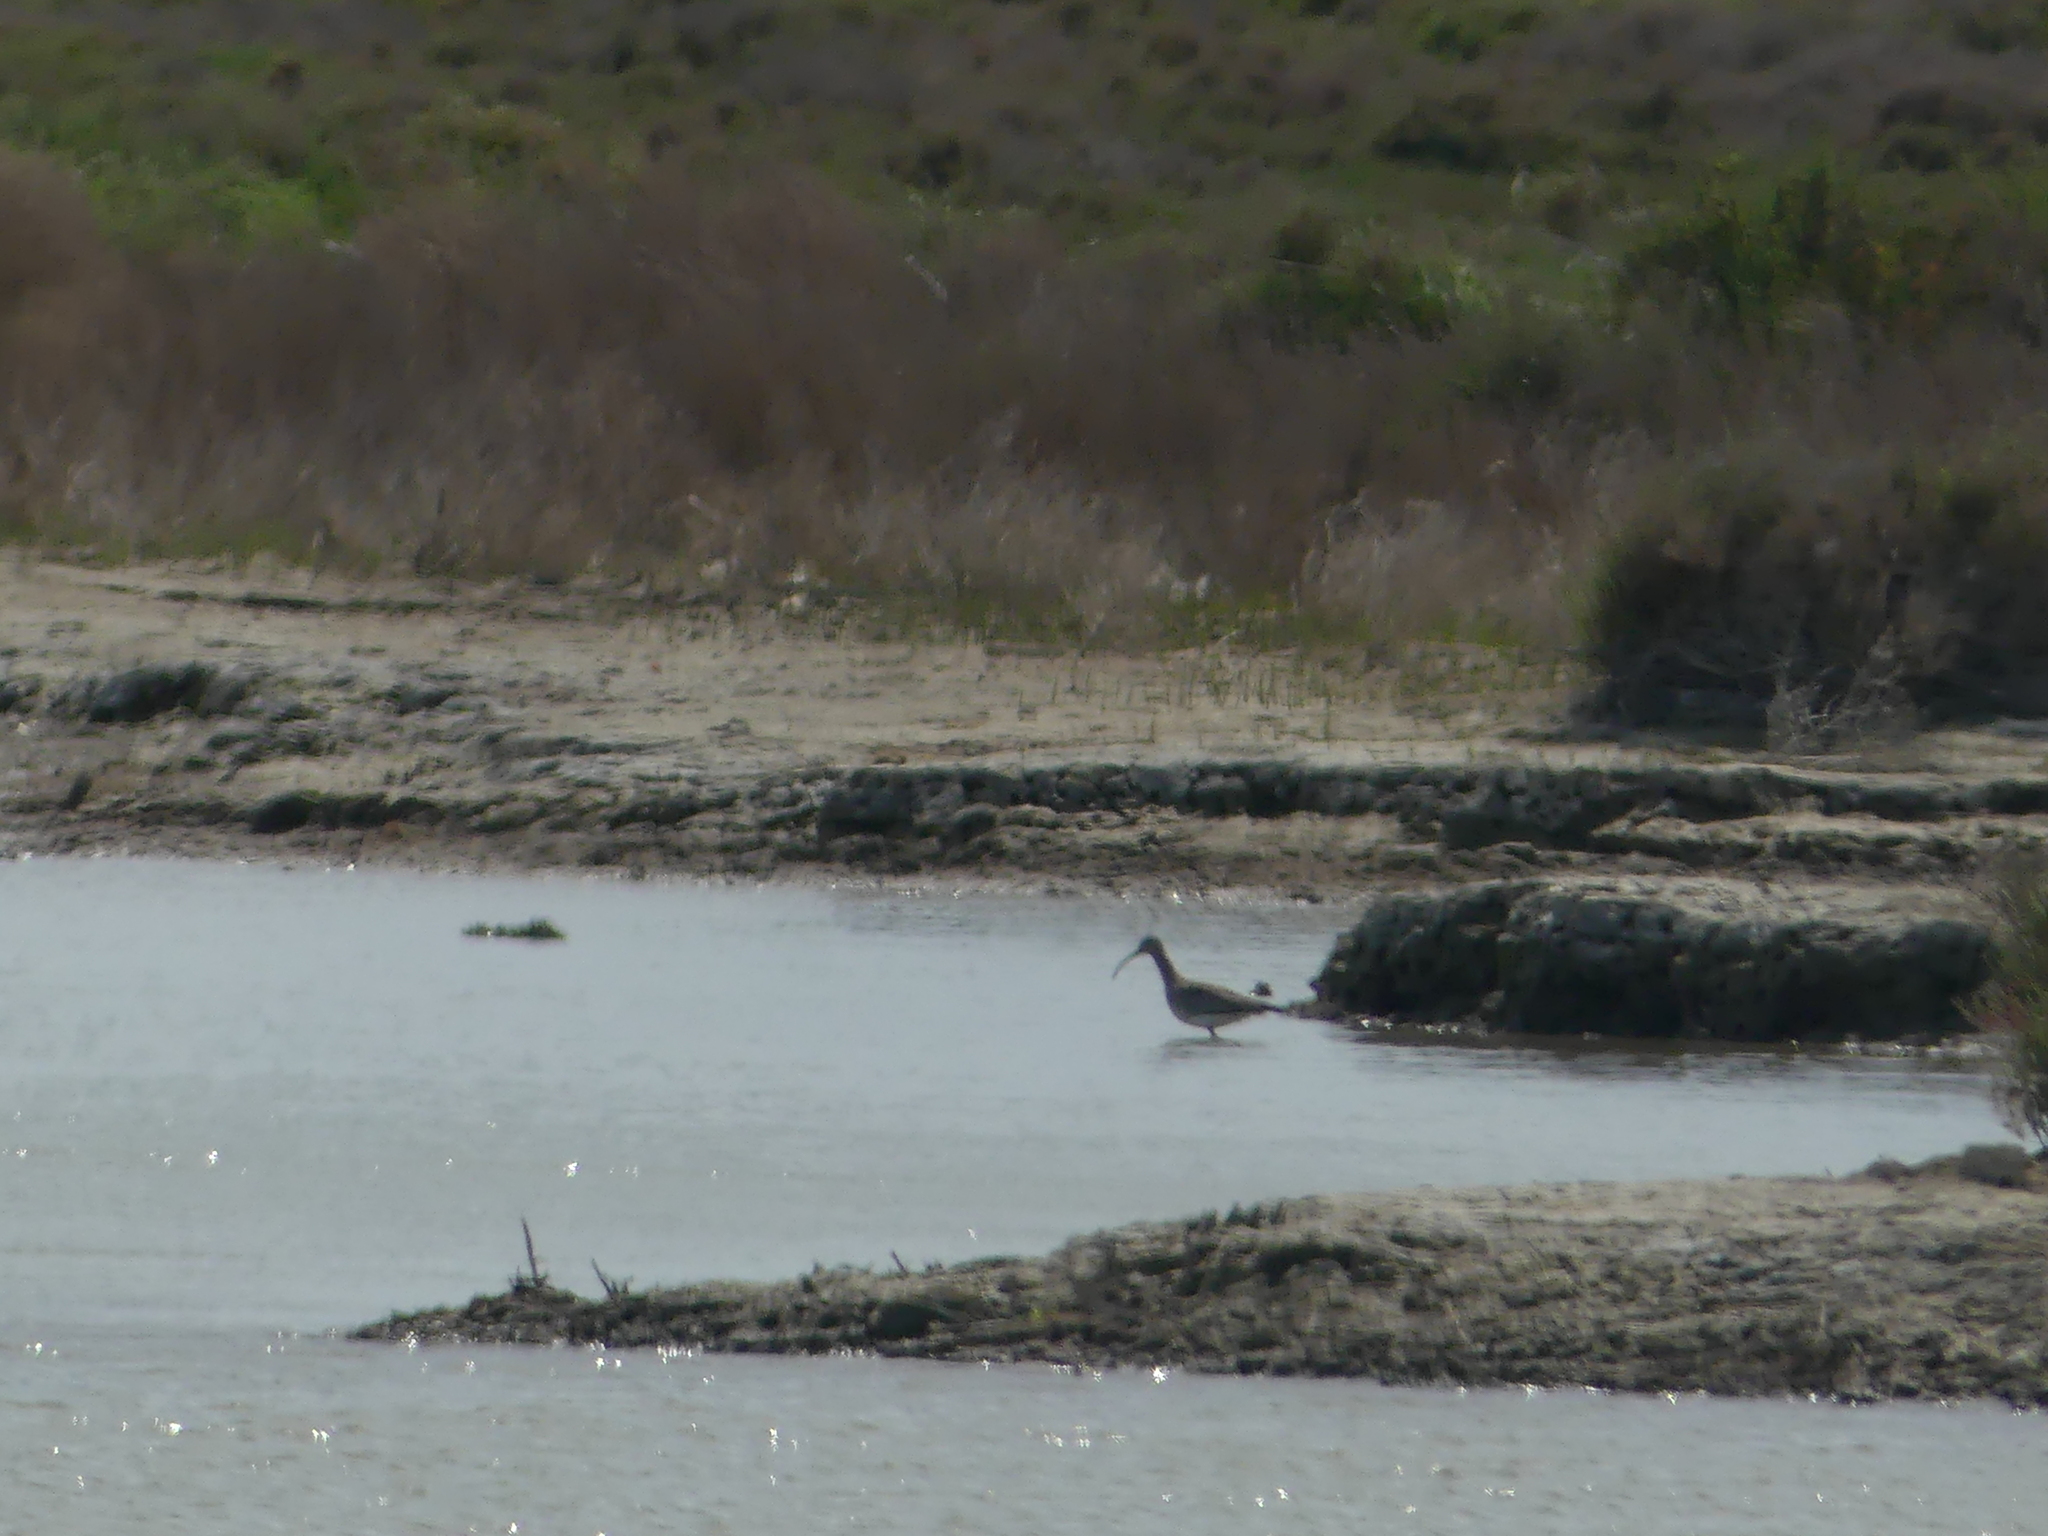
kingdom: Animalia
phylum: Chordata
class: Aves
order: Charadriiformes
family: Scolopacidae
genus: Numenius
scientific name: Numenius arquata
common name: Eurasian curlew
